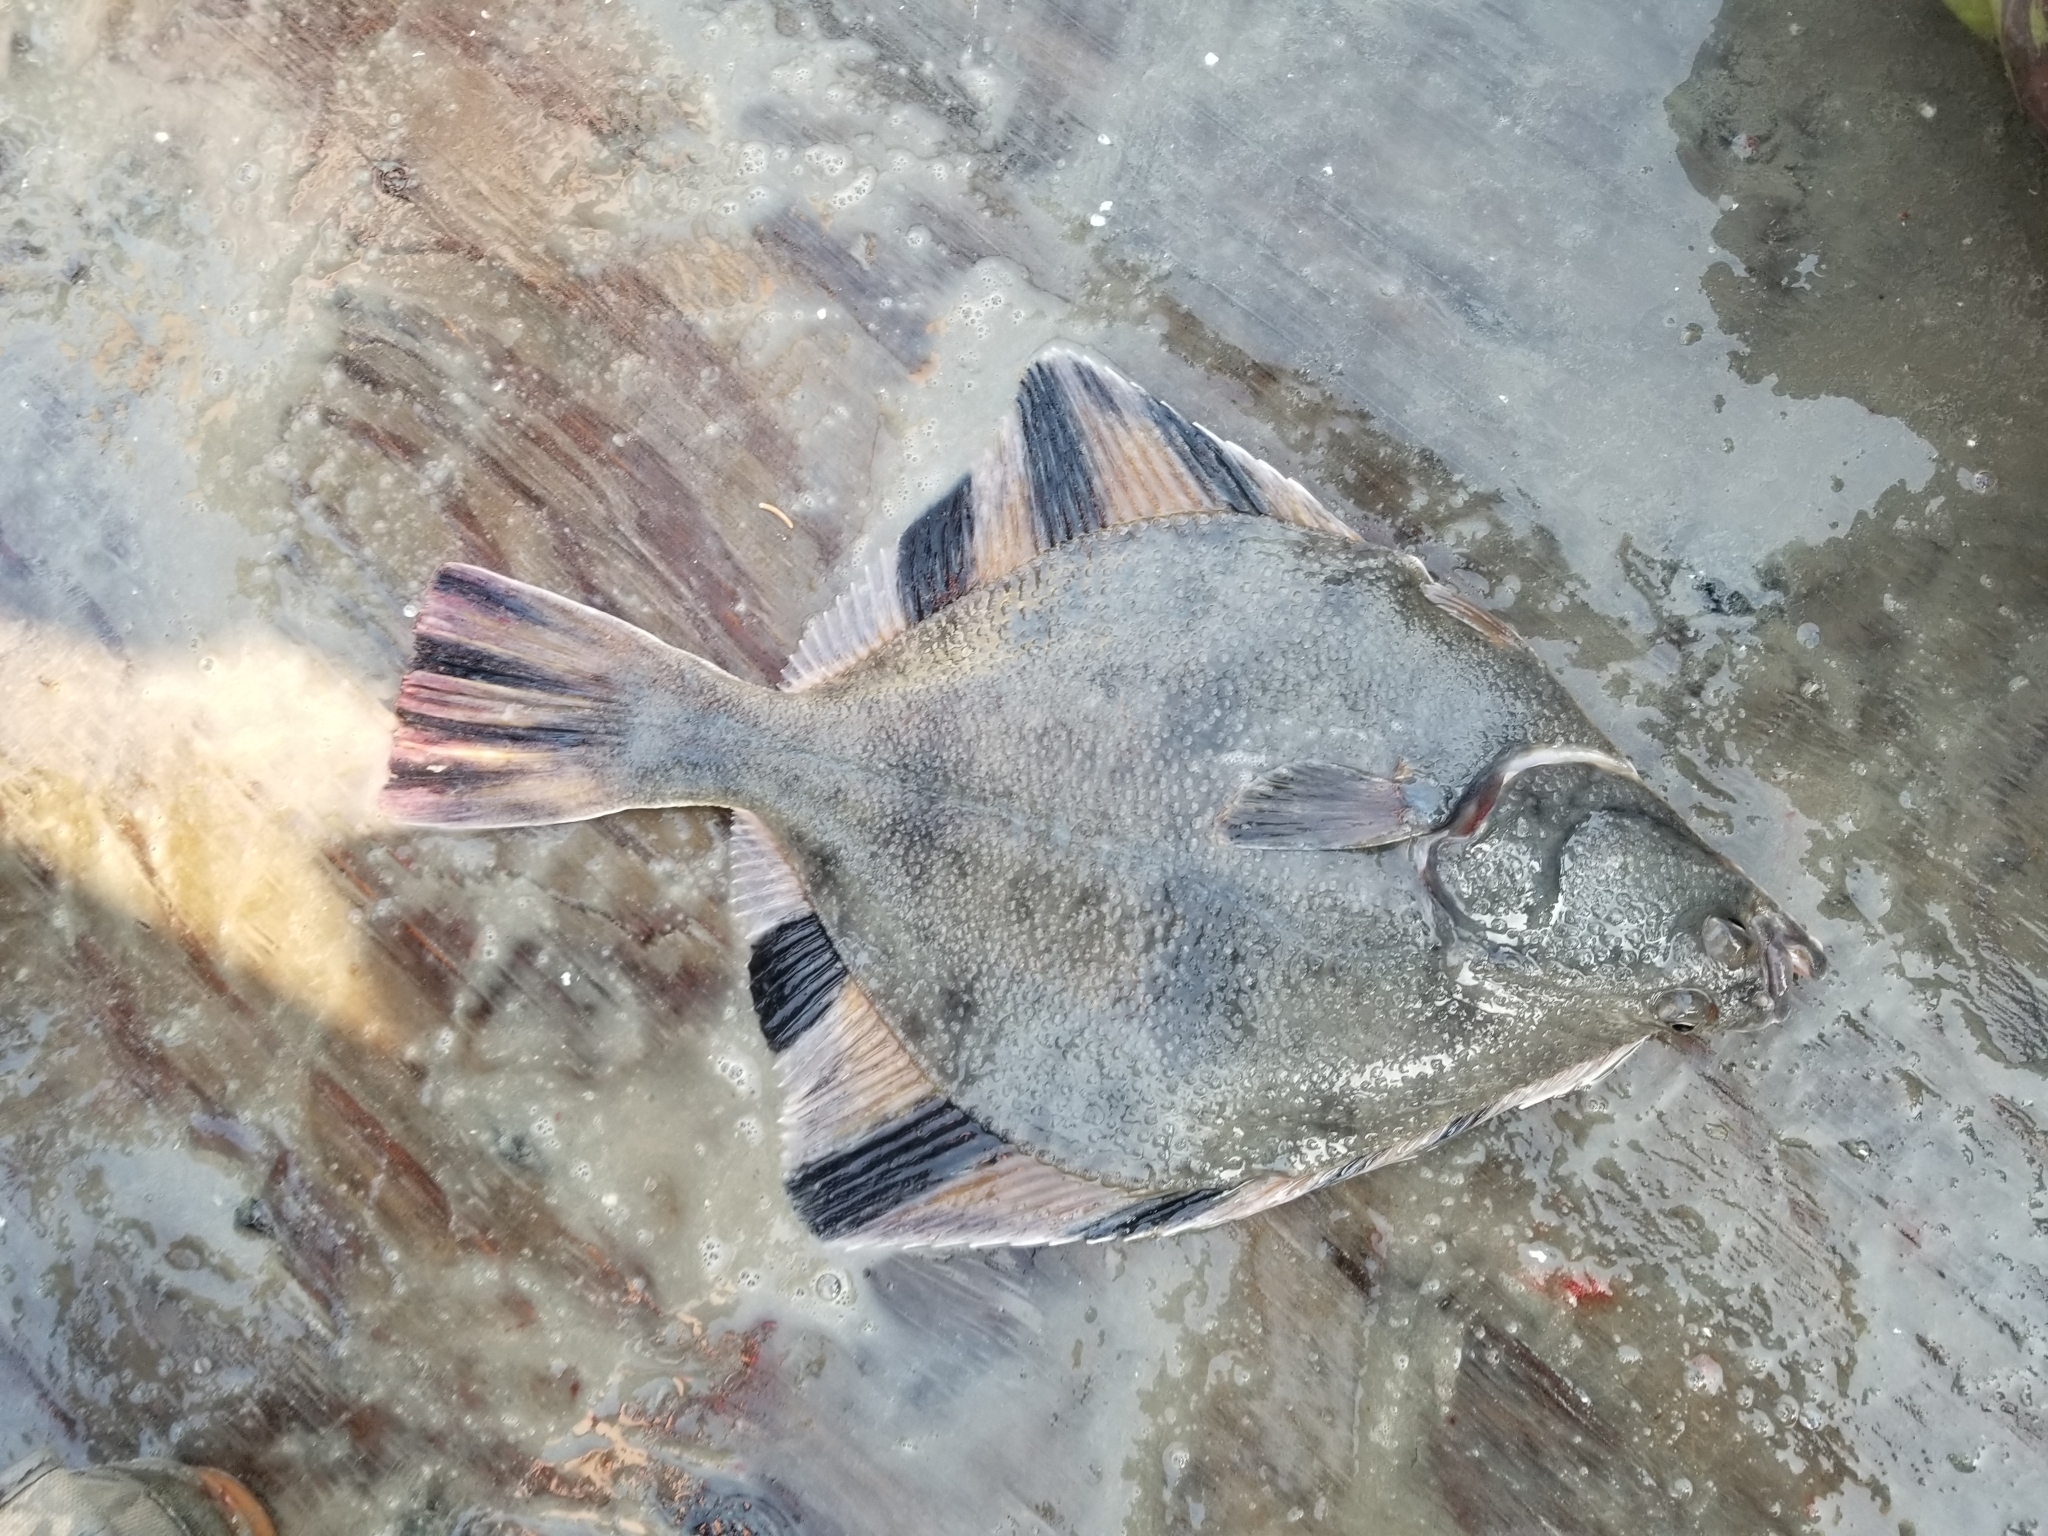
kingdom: Animalia
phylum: Chordata
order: Pleuronectiformes
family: Pleuronectidae
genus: Platichthys
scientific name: Platichthys stellatus
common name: Starry flounder
